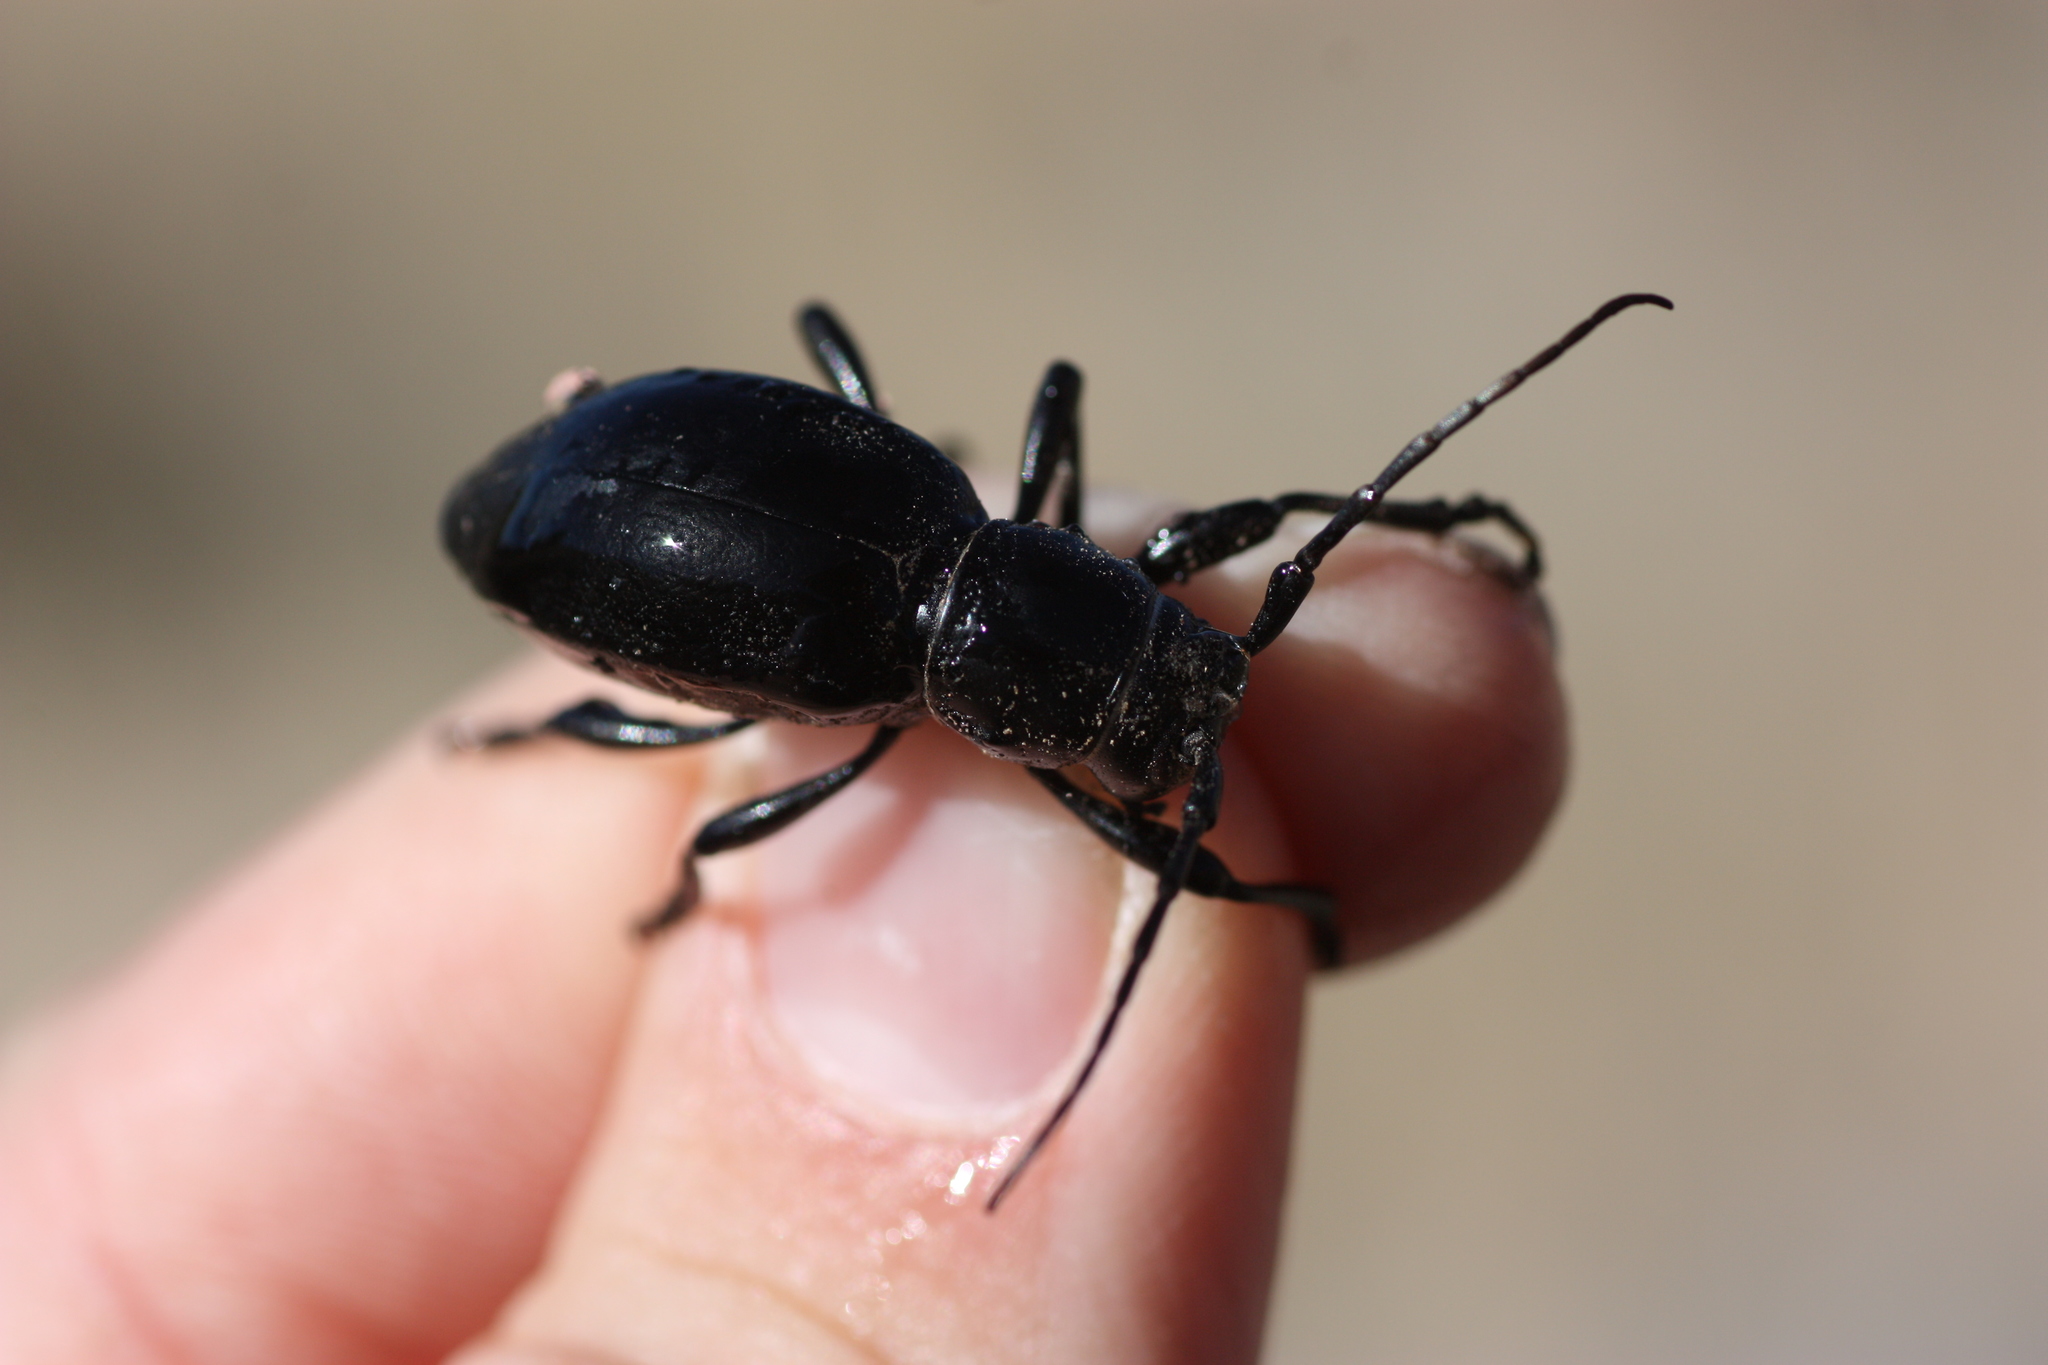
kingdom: Animalia
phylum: Arthropoda
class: Insecta
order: Coleoptera
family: Cerambycidae
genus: Moneilema
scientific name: Moneilema armatum
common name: Long-horned beetle
